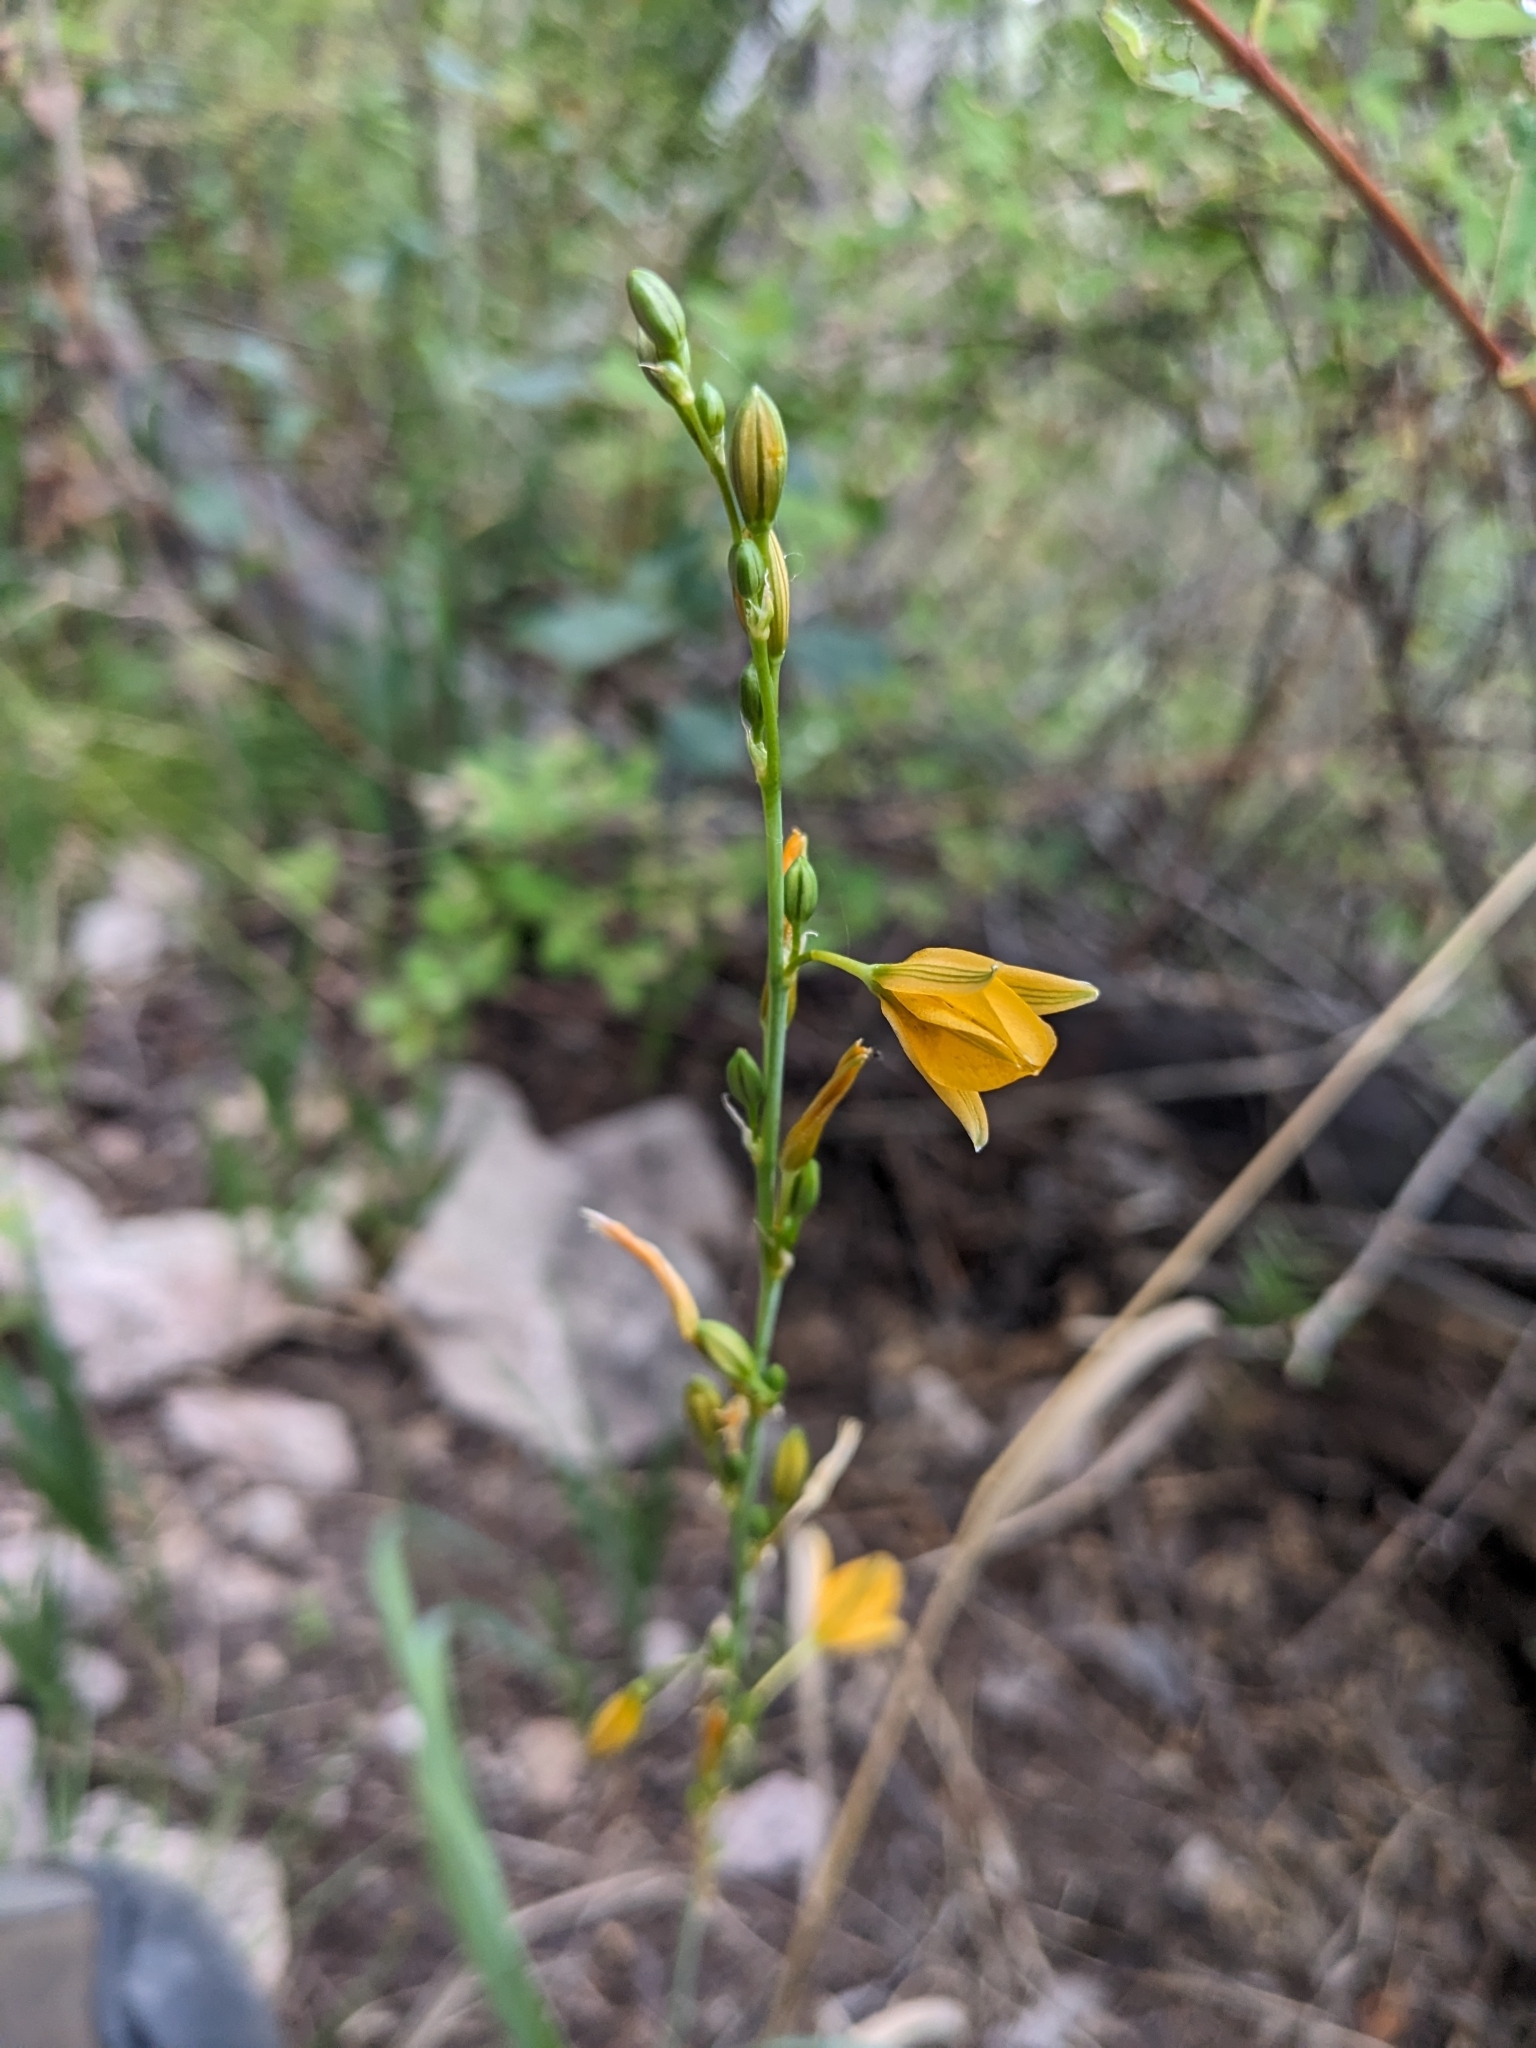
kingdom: Plantae
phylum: Tracheophyta
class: Liliopsida
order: Asparagales
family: Asparagaceae
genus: Echeandia
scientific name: Echeandia flavescens
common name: Amberlily
